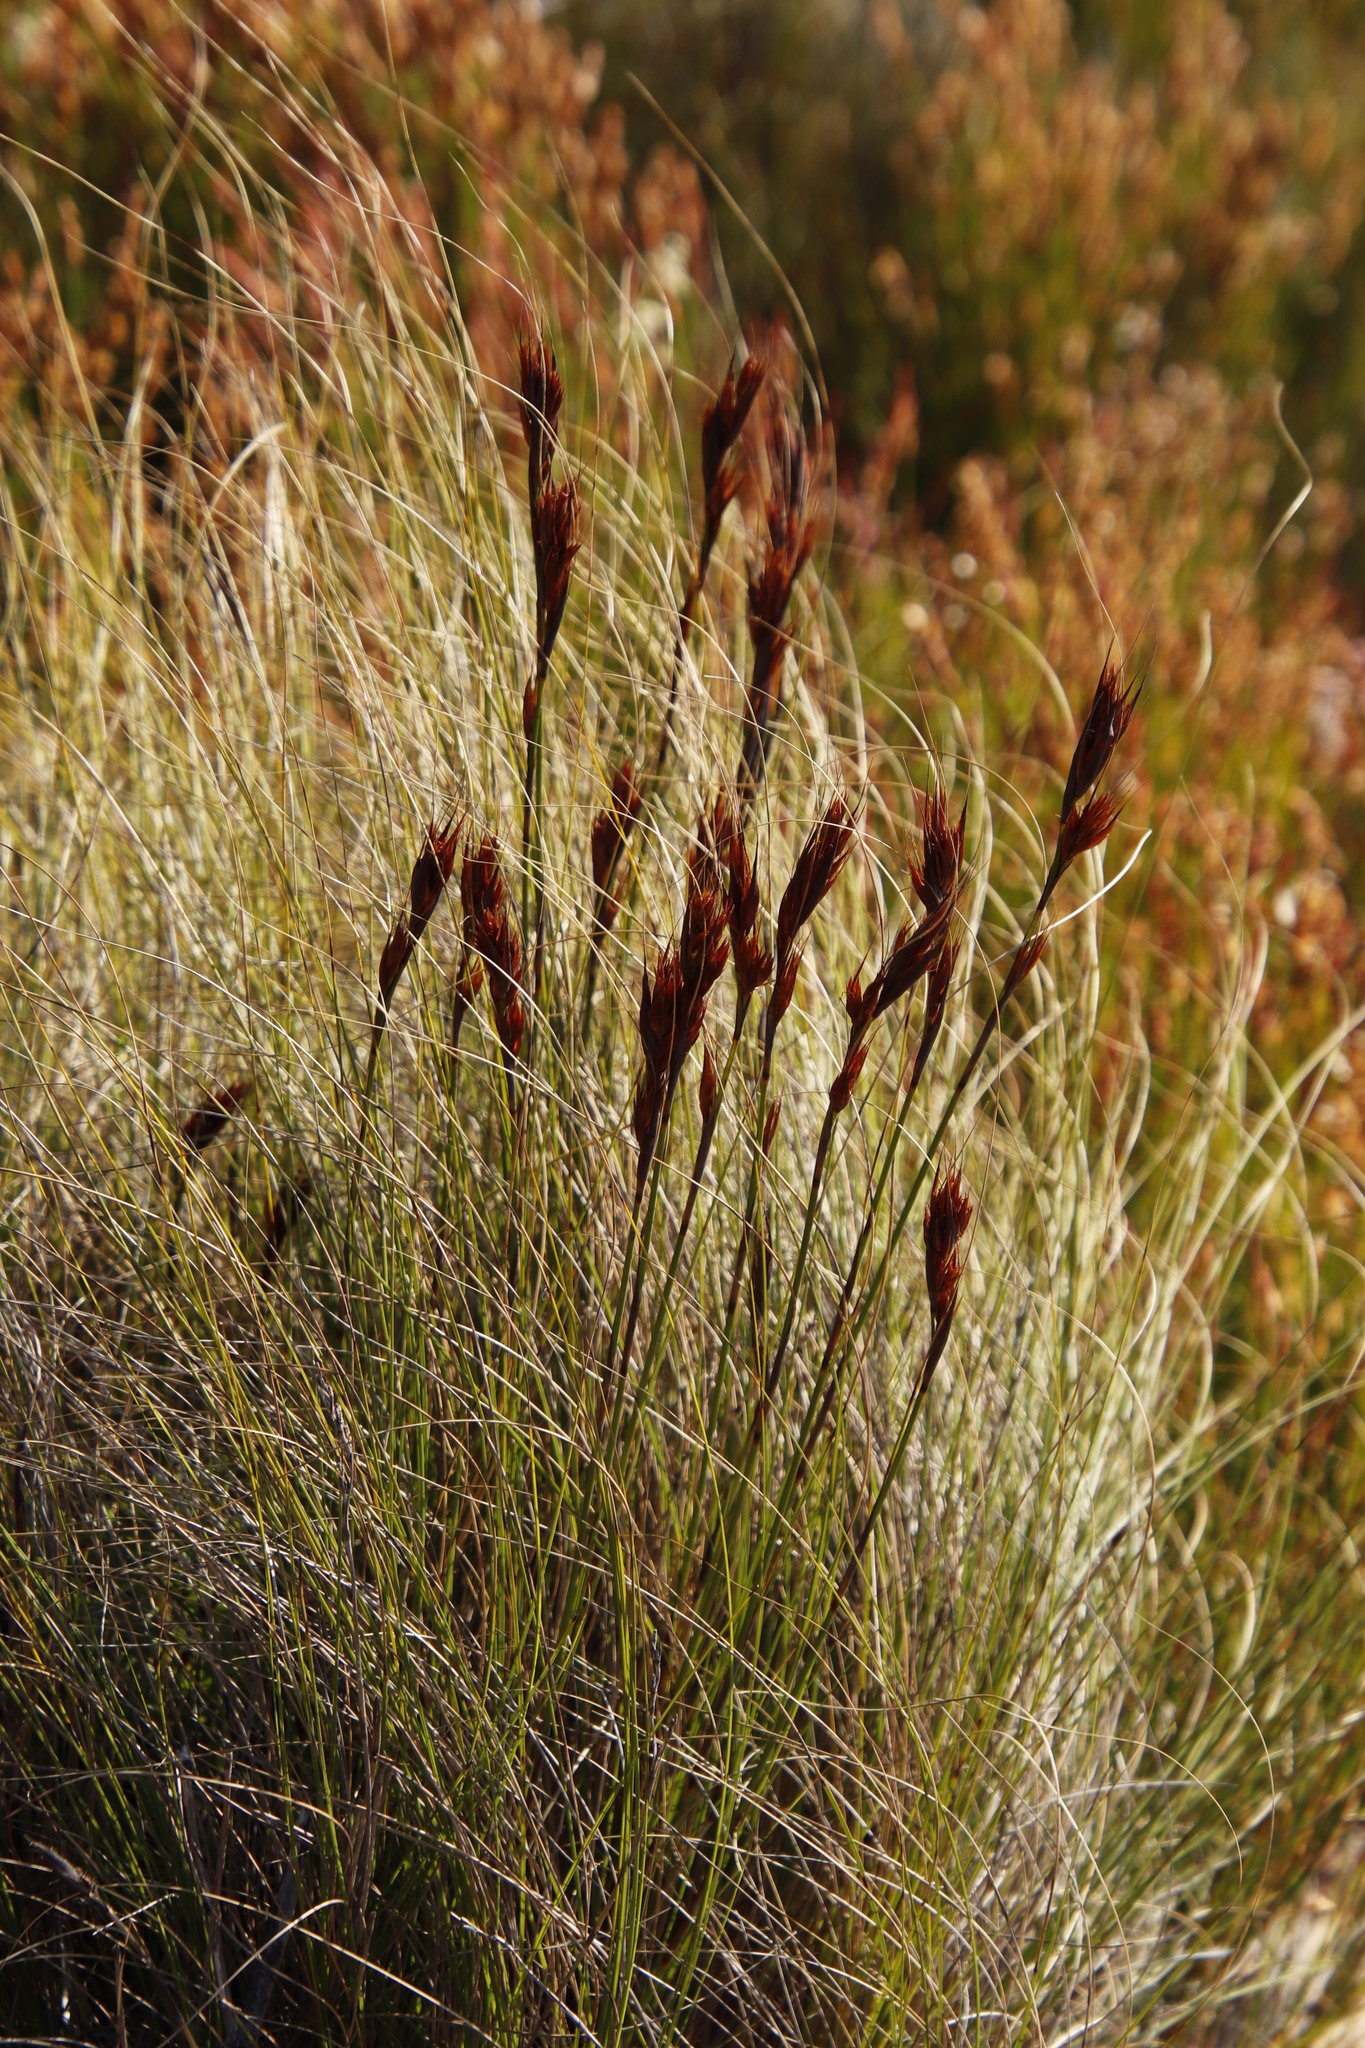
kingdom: Plantae
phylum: Tracheophyta
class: Liliopsida
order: Poales
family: Cyperaceae
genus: Tetraria
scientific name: Tetraria ustulata
